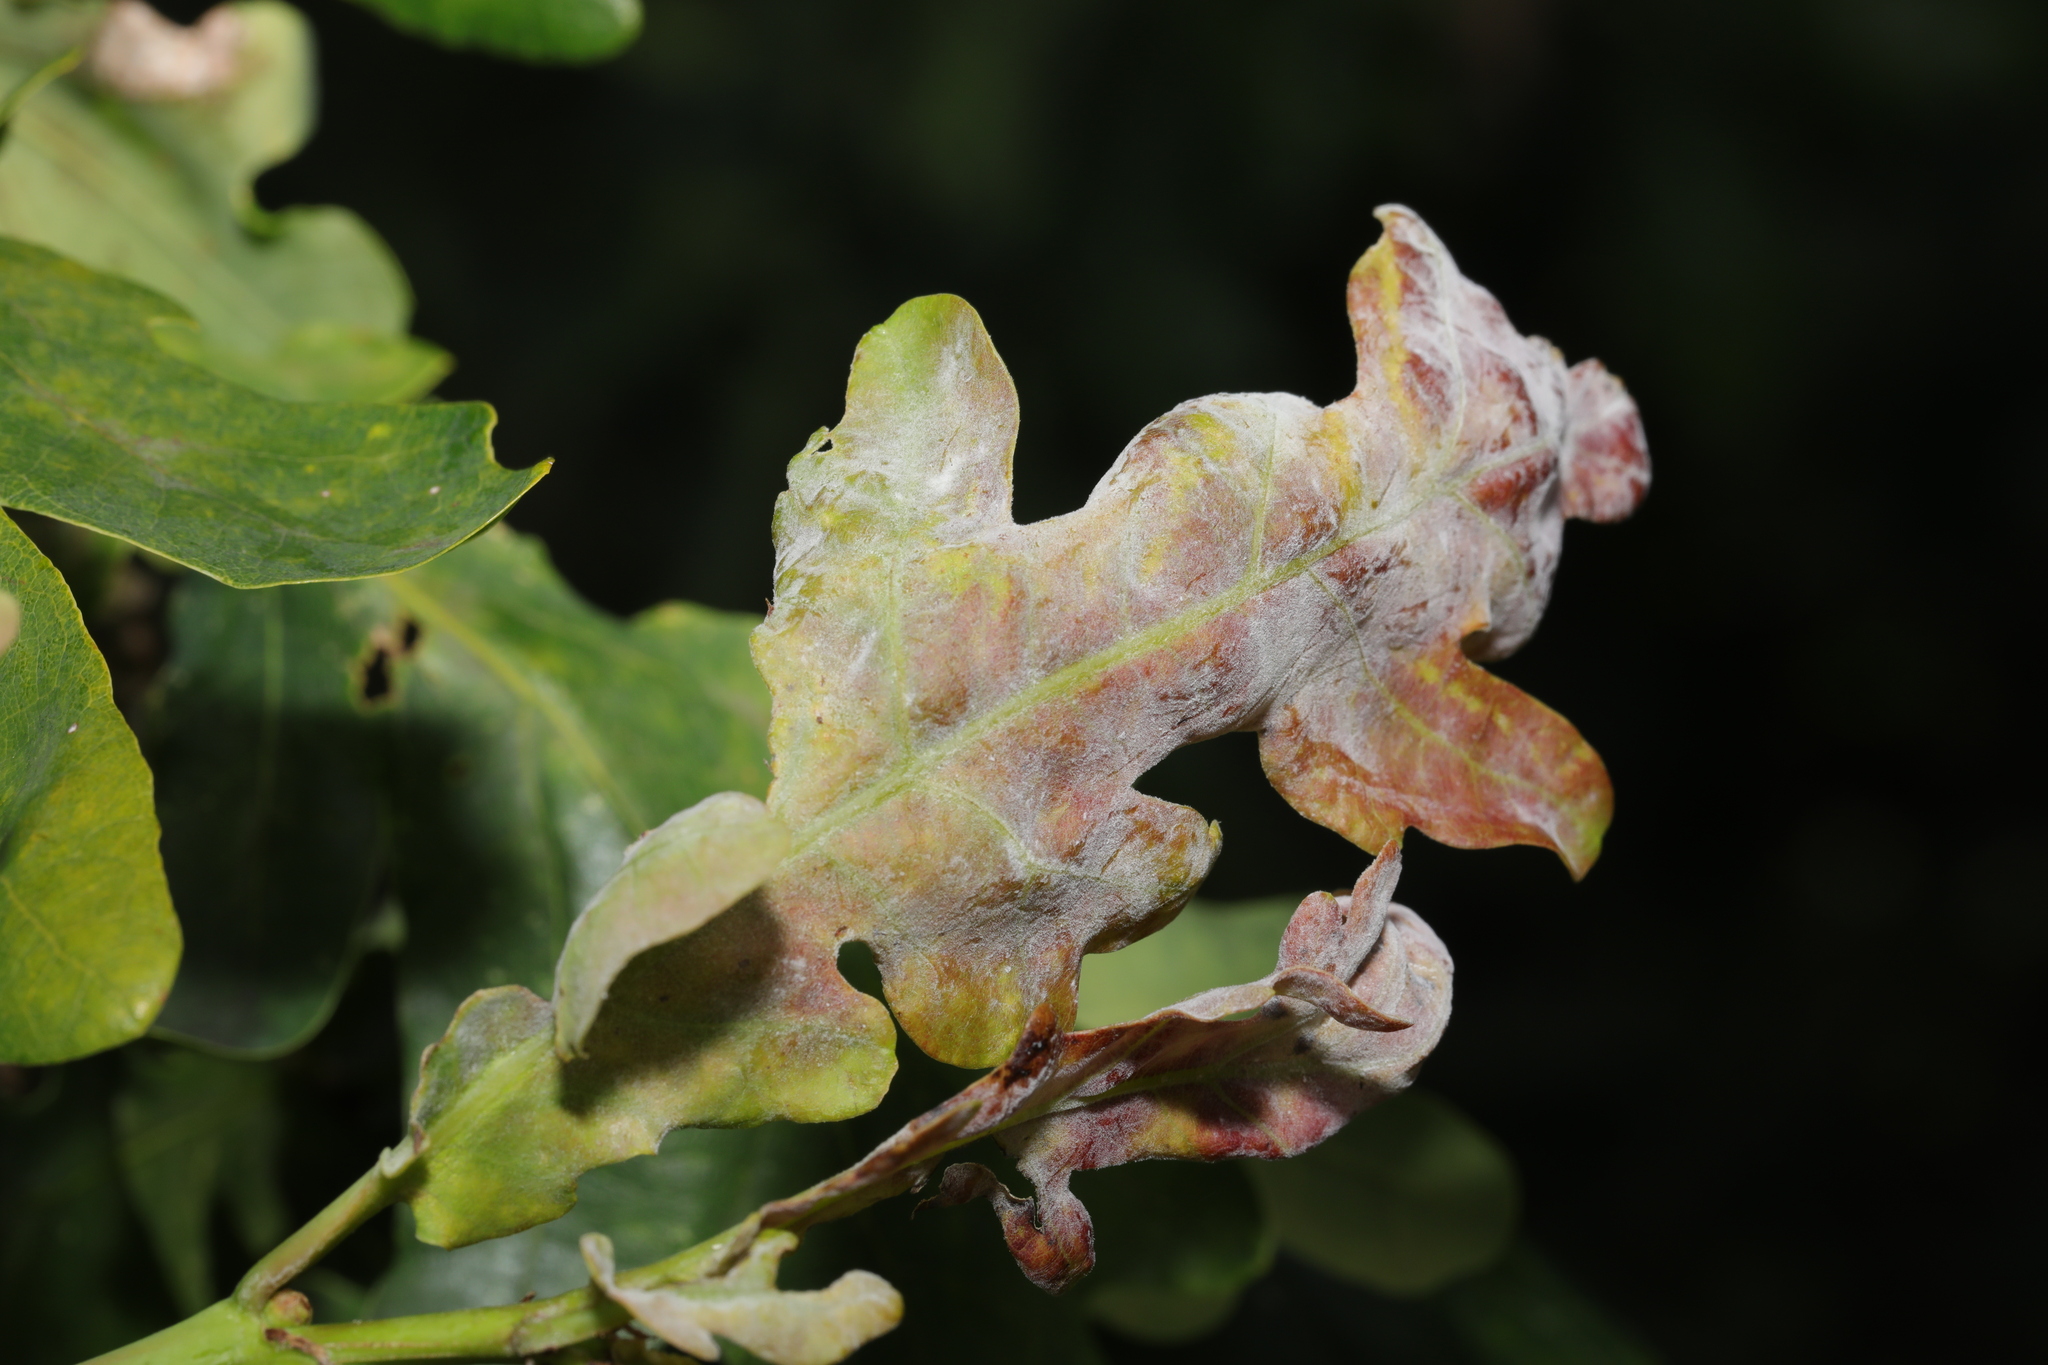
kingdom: Fungi
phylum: Ascomycota
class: Leotiomycetes
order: Helotiales
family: Erysiphaceae
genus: Erysiphe
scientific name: Erysiphe alphitoides
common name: Oak mildew
